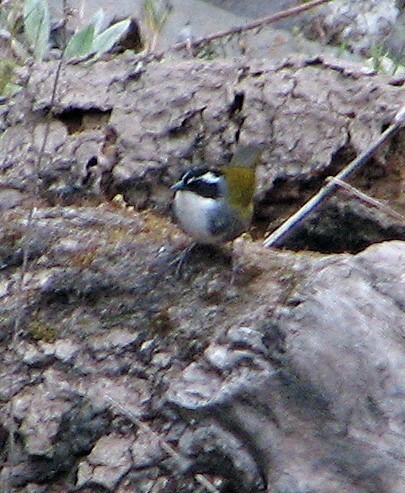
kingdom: Animalia
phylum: Chordata
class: Aves
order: Passeriformes
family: Passerellidae
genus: Arremon
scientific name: Arremon torquatus
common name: White-browed brushfinch
